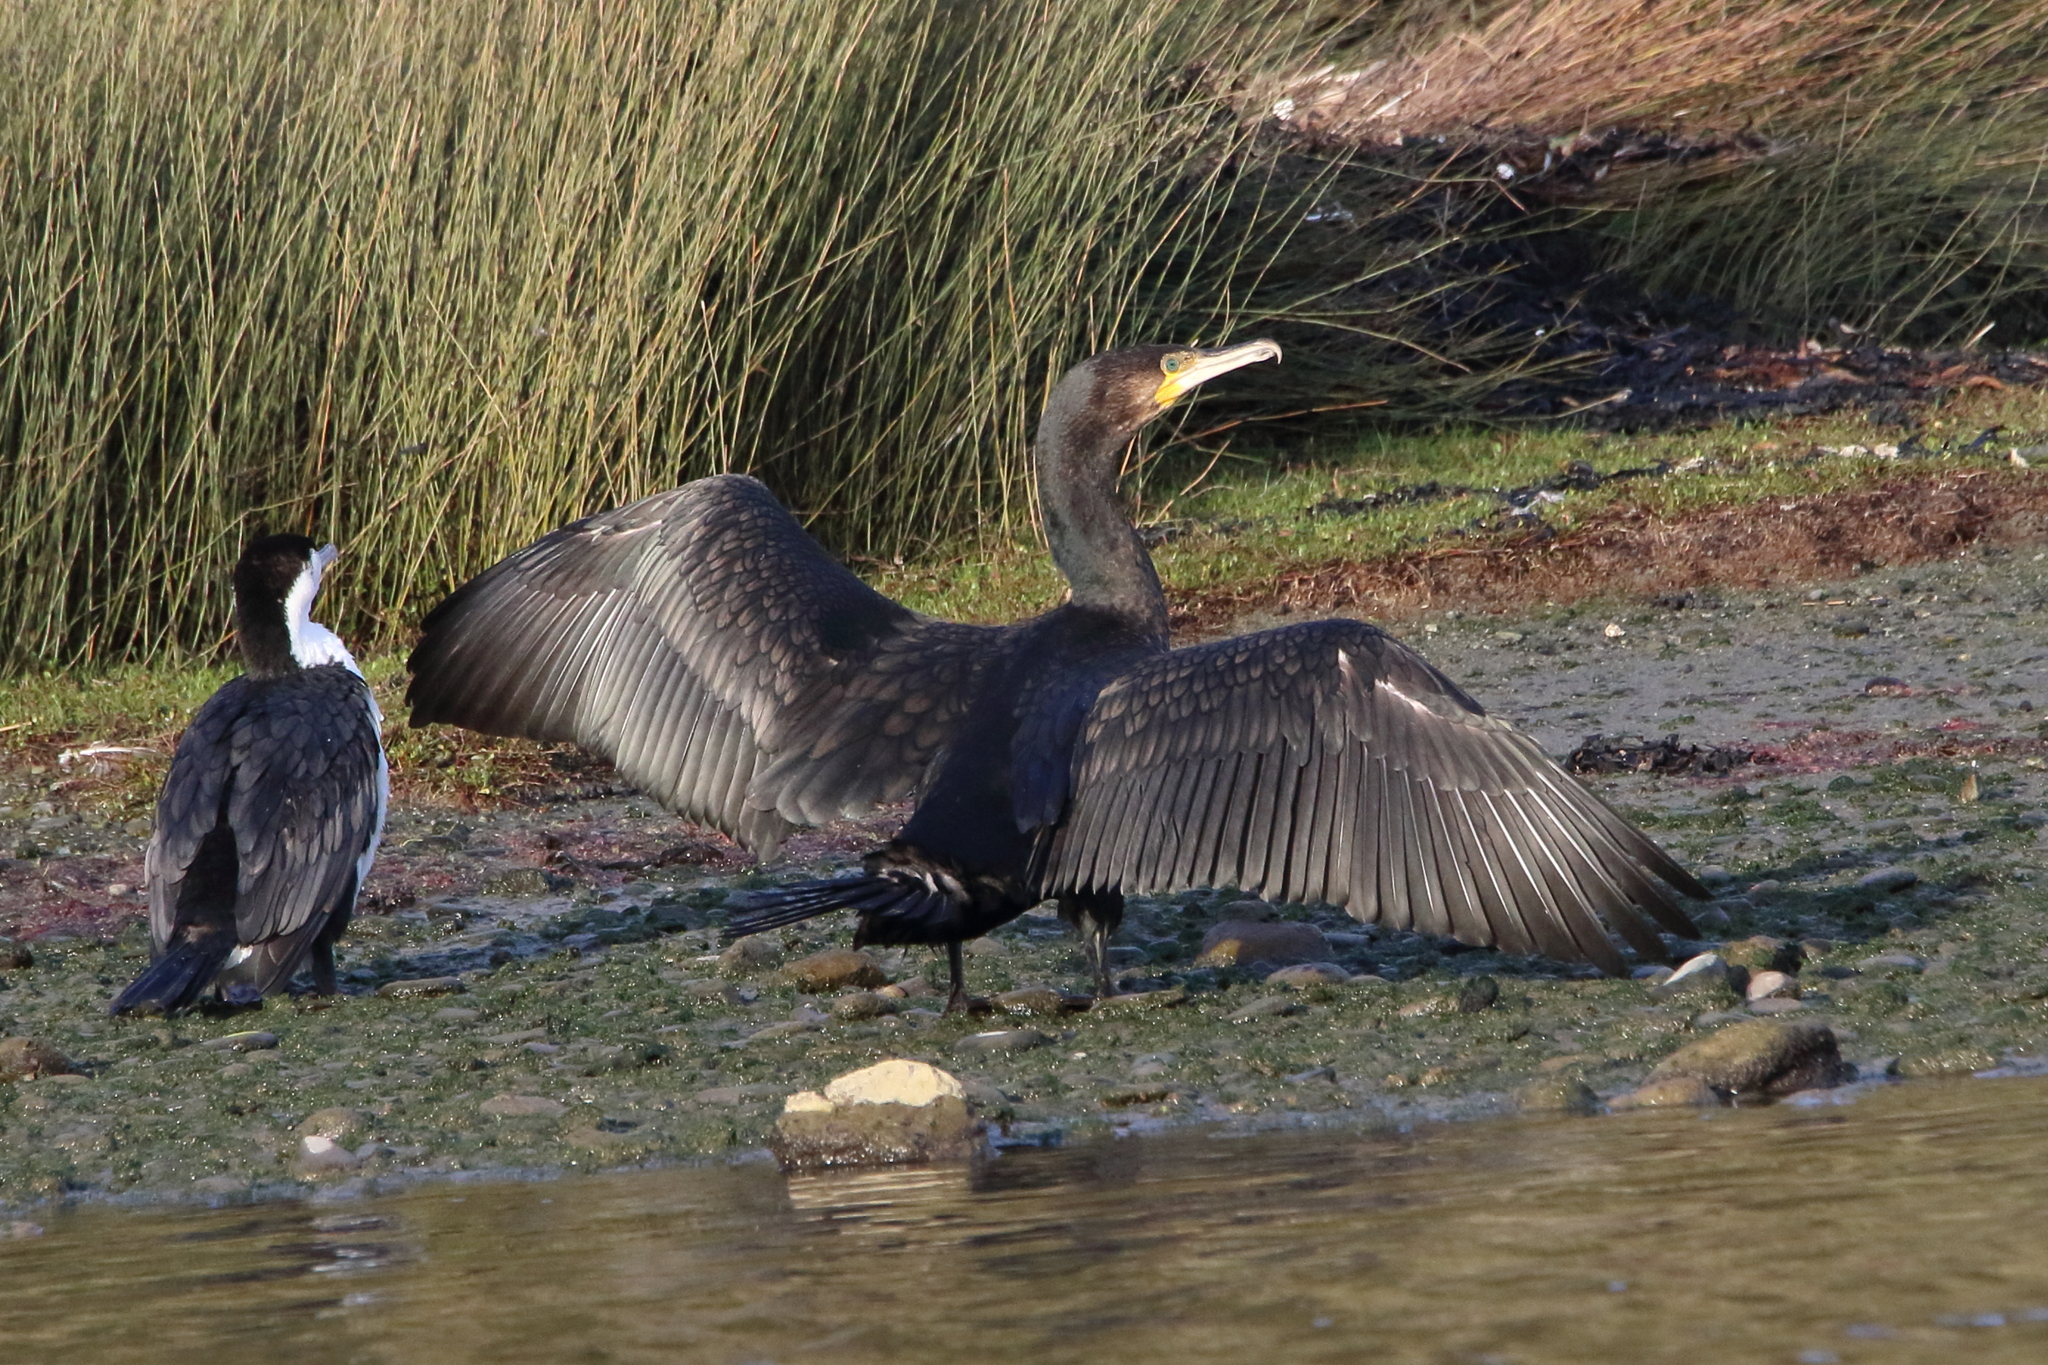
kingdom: Animalia
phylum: Chordata
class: Aves
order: Suliformes
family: Phalacrocoracidae
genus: Phalacrocorax
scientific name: Phalacrocorax carbo
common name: Great cormorant
